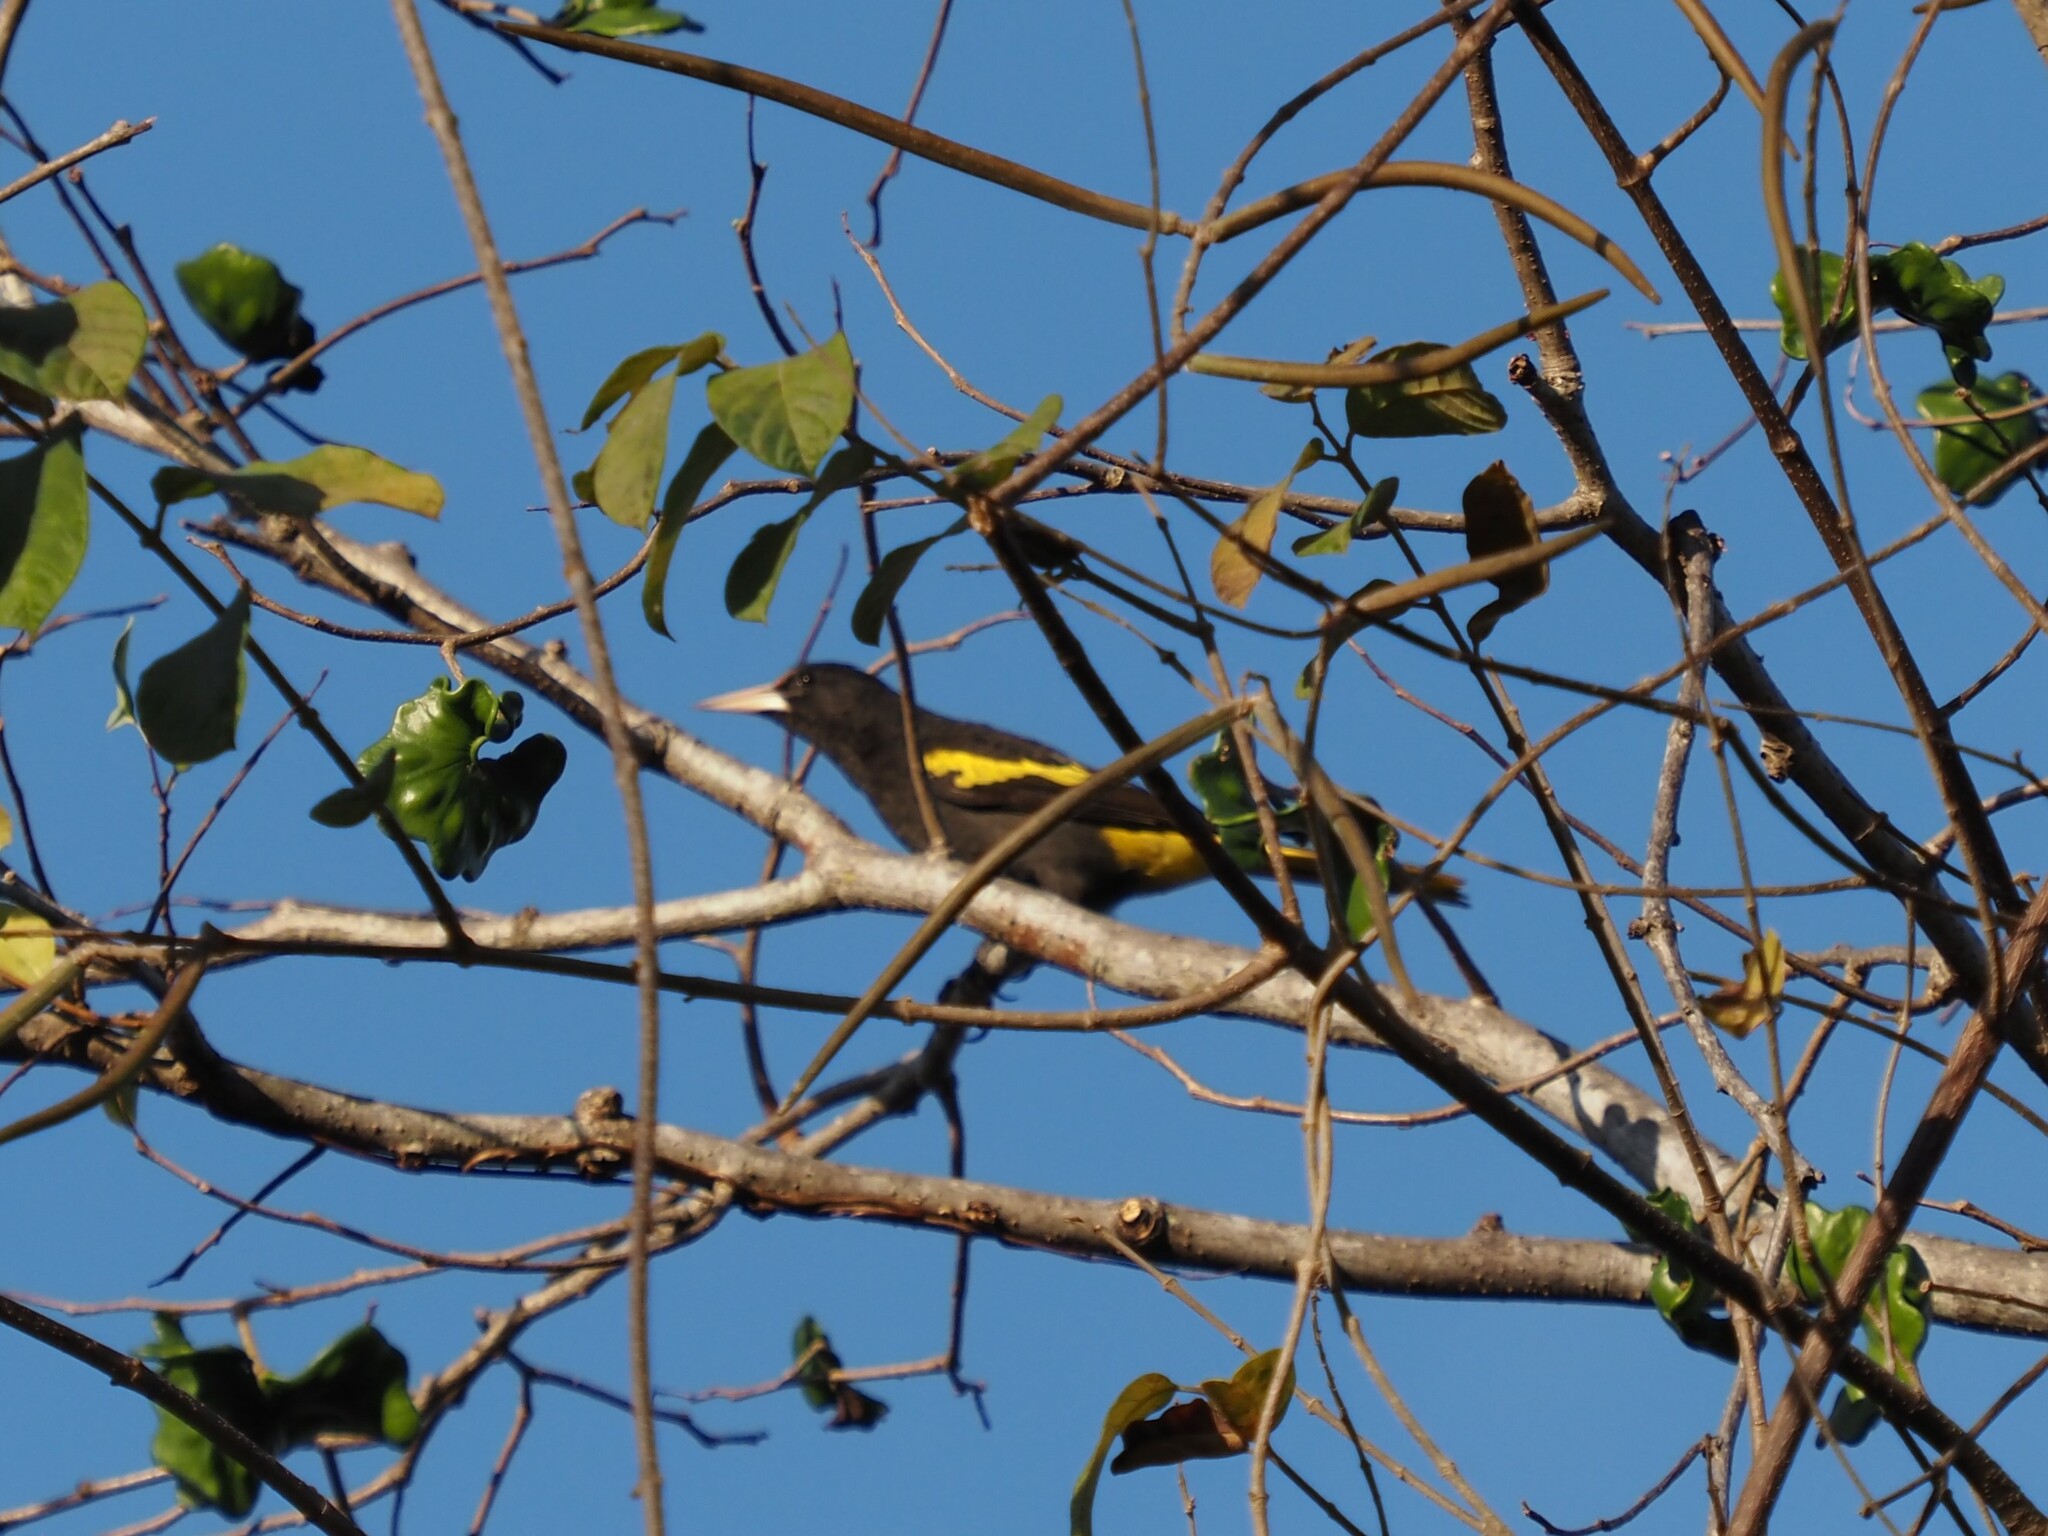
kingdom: Animalia
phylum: Chordata
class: Aves
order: Passeriformes
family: Icteridae
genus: Cacicus
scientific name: Cacicus melanicterus
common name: Yellow-winged cacique
